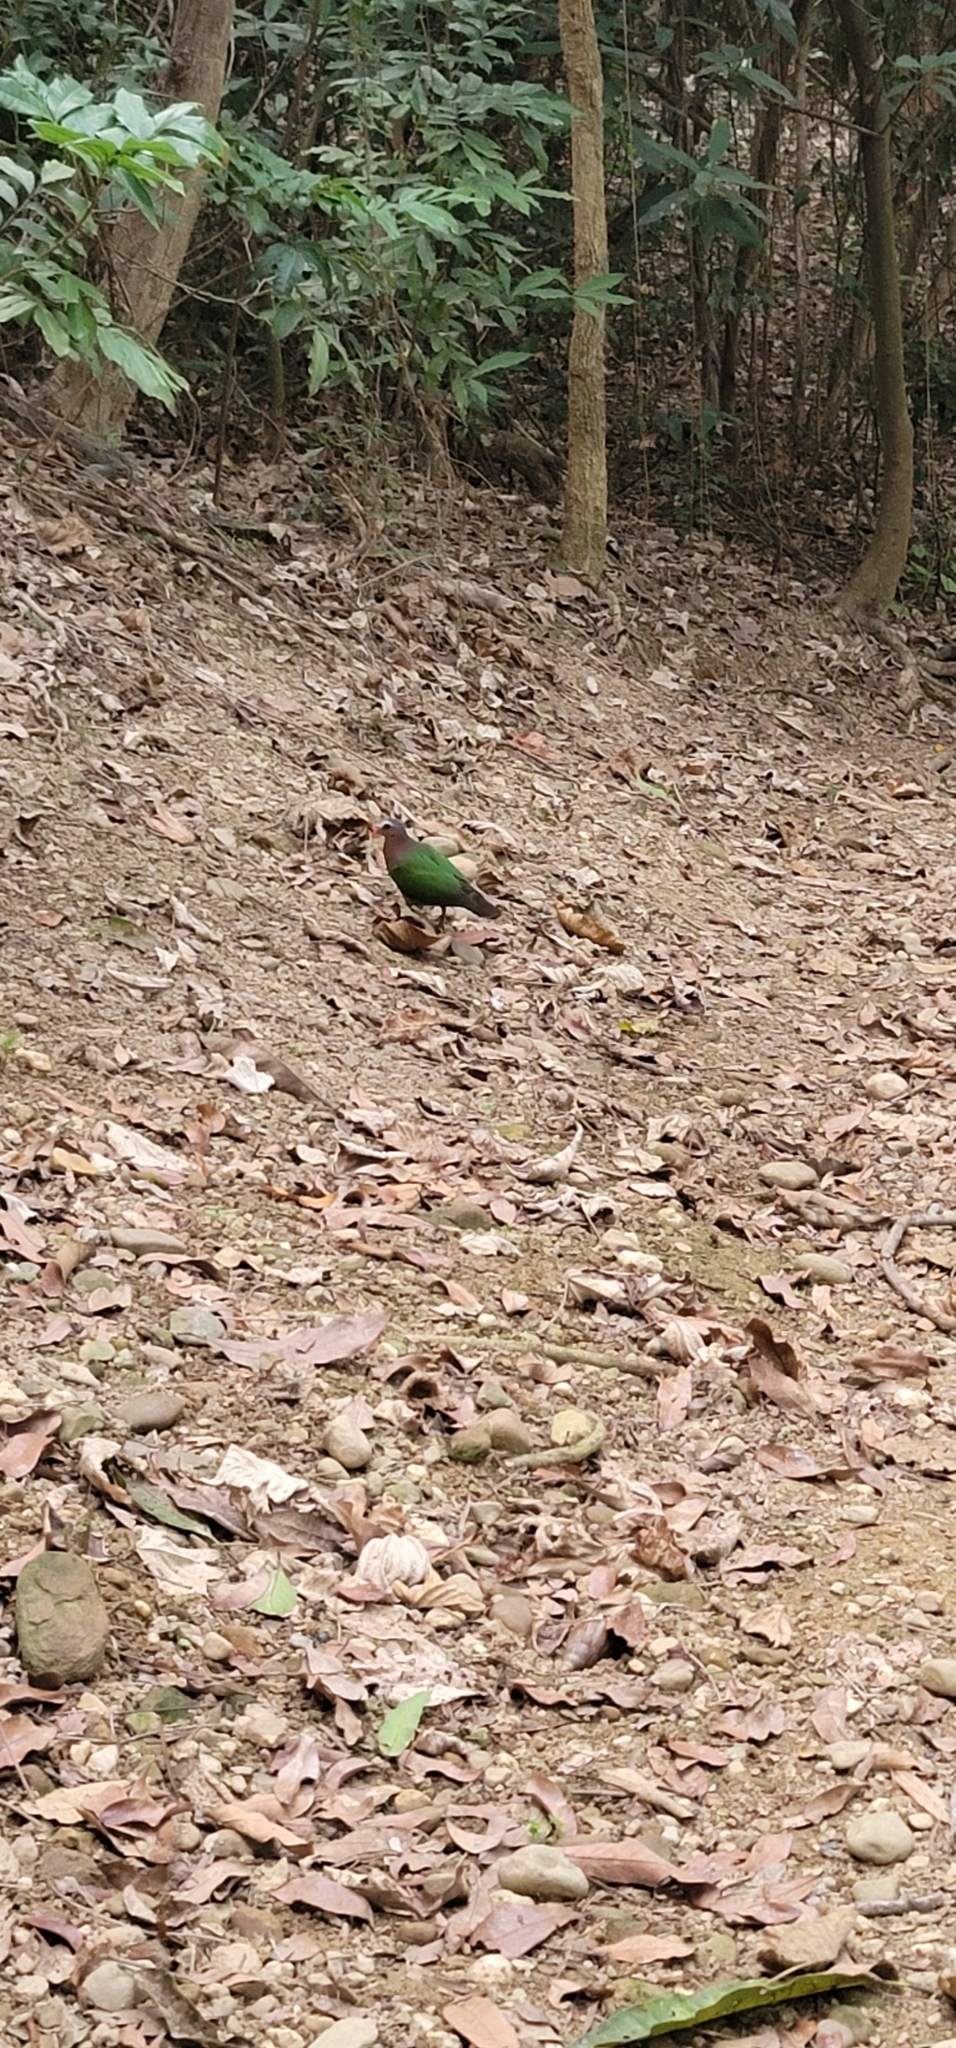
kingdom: Animalia
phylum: Chordata
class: Aves
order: Columbiformes
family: Columbidae
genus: Chalcophaps
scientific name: Chalcophaps indica
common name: Common emerald dove
